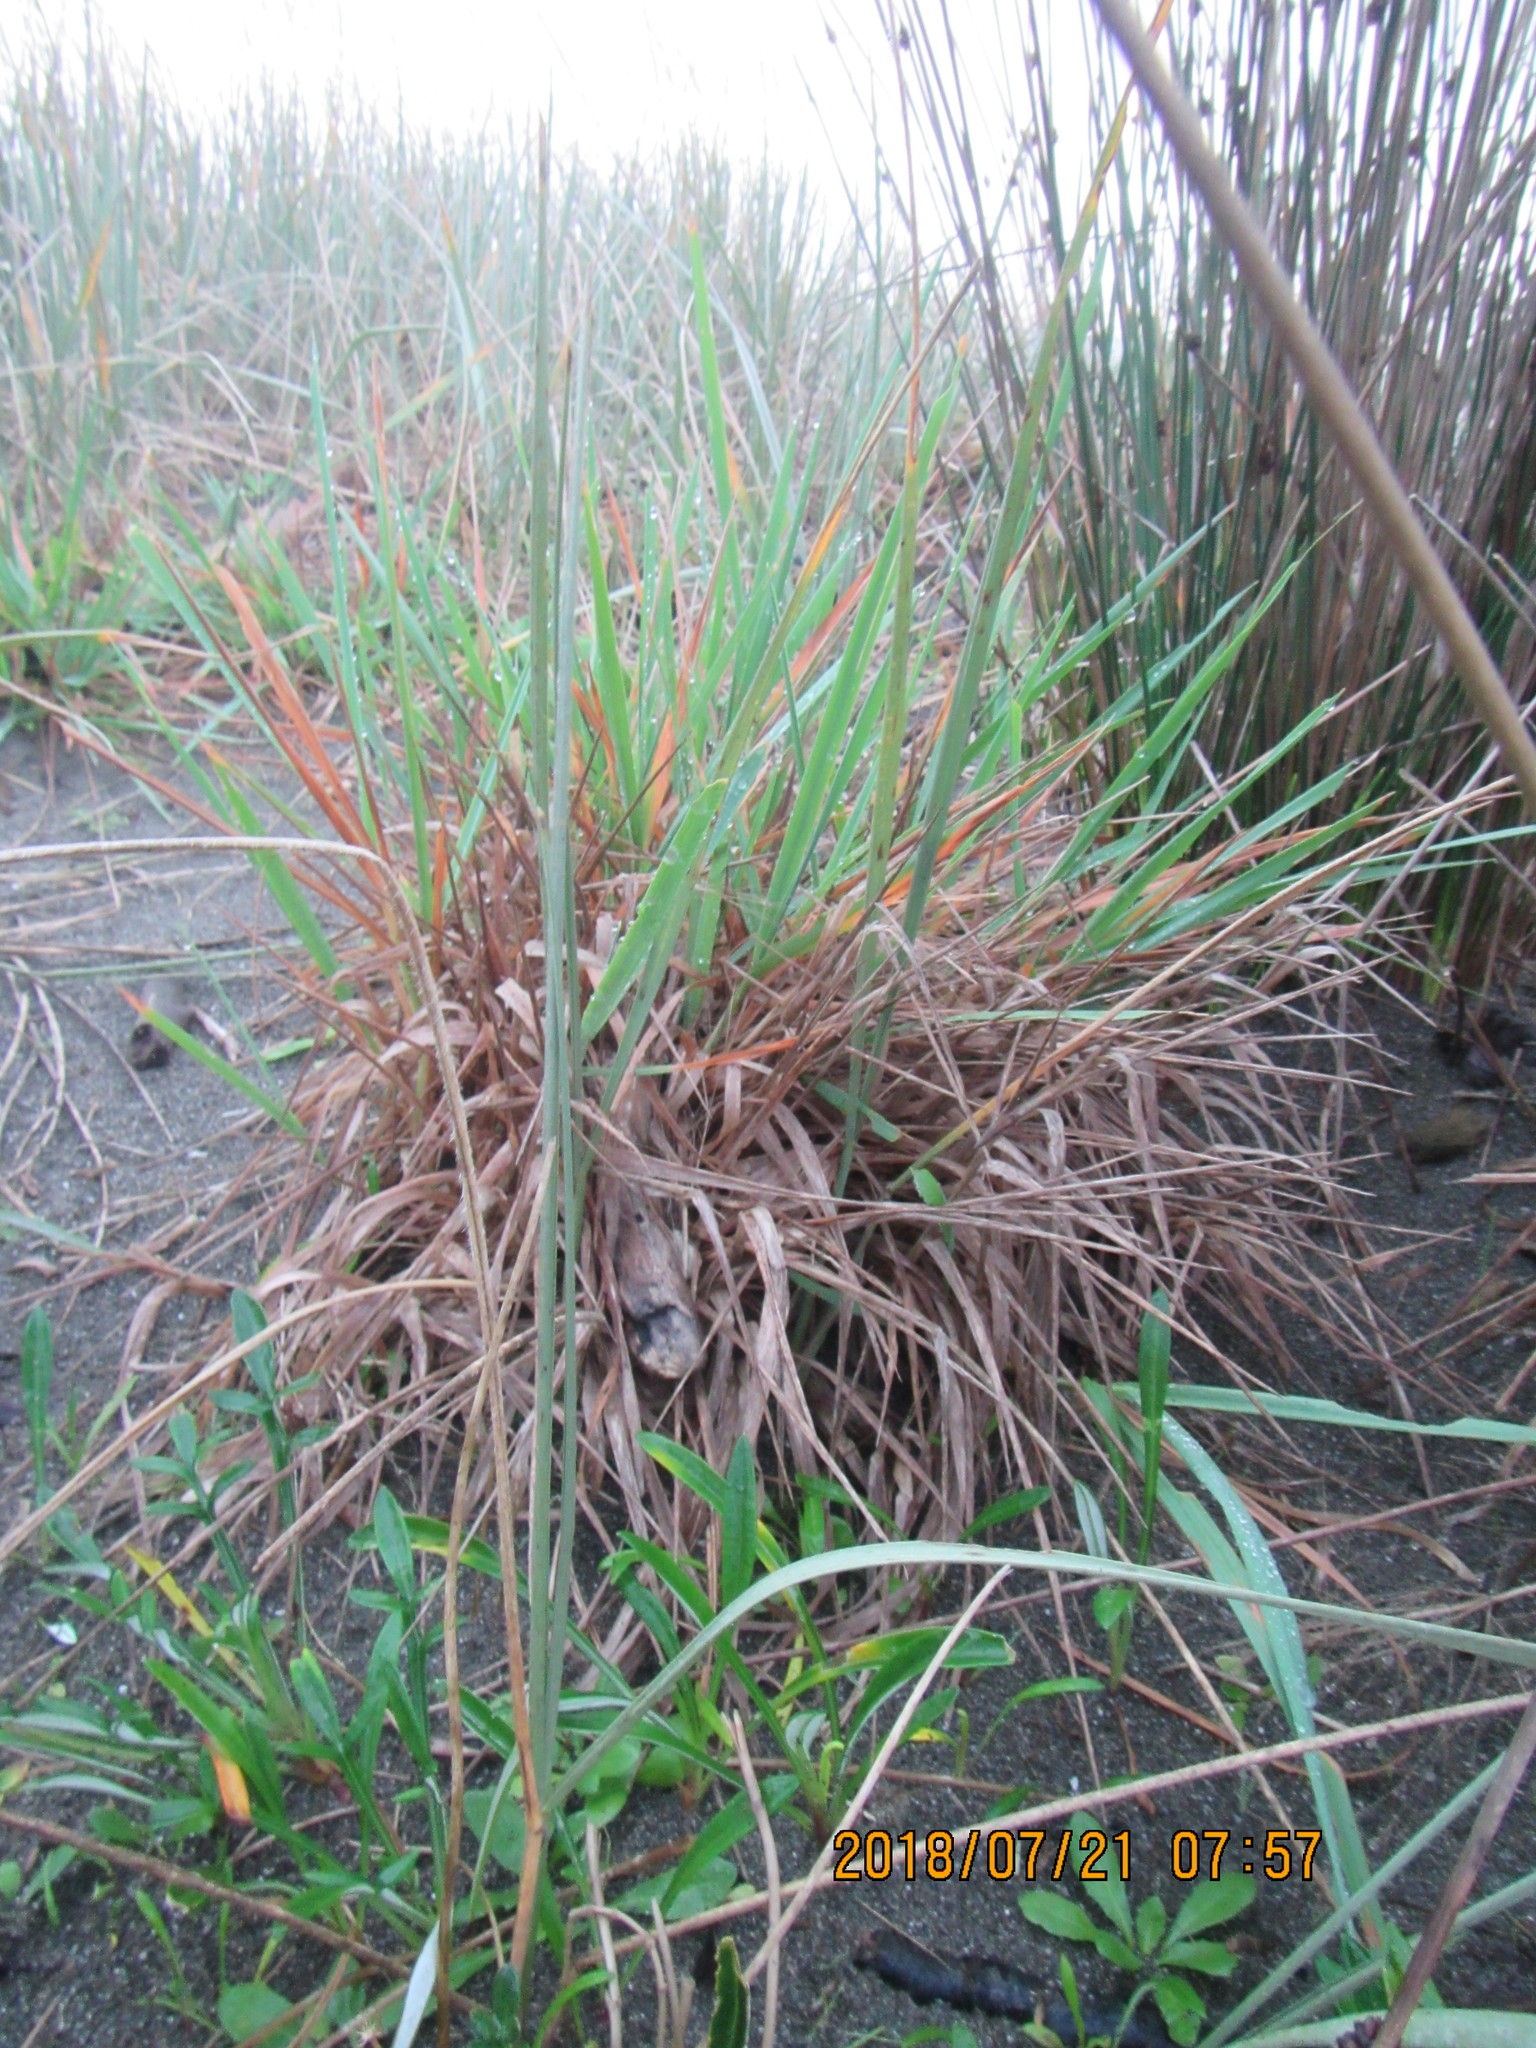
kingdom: Plantae
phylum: Tracheophyta
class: Liliopsida
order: Poales
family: Poaceae
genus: Lachnagrostis
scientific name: Lachnagrostis billardierei
